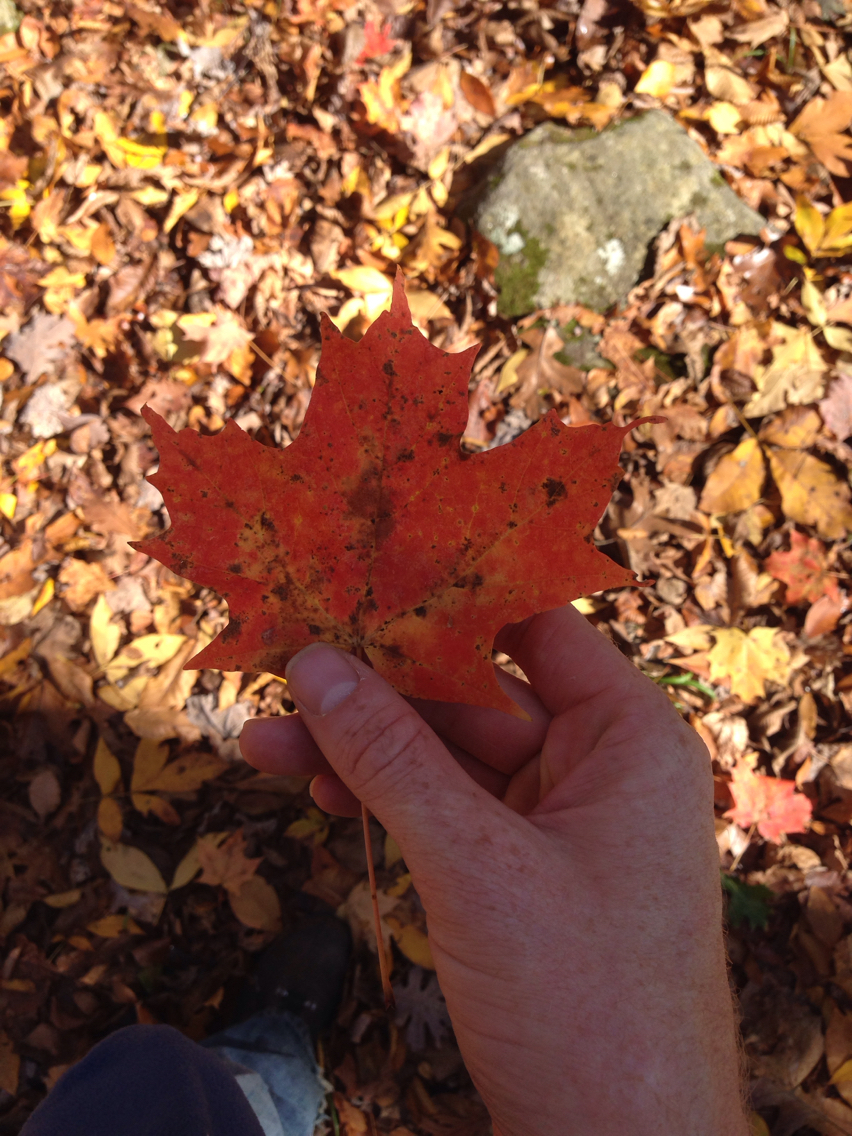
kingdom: Plantae
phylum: Tracheophyta
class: Magnoliopsida
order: Sapindales
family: Sapindaceae
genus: Acer
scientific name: Acer saccharum
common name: Sugar maple
